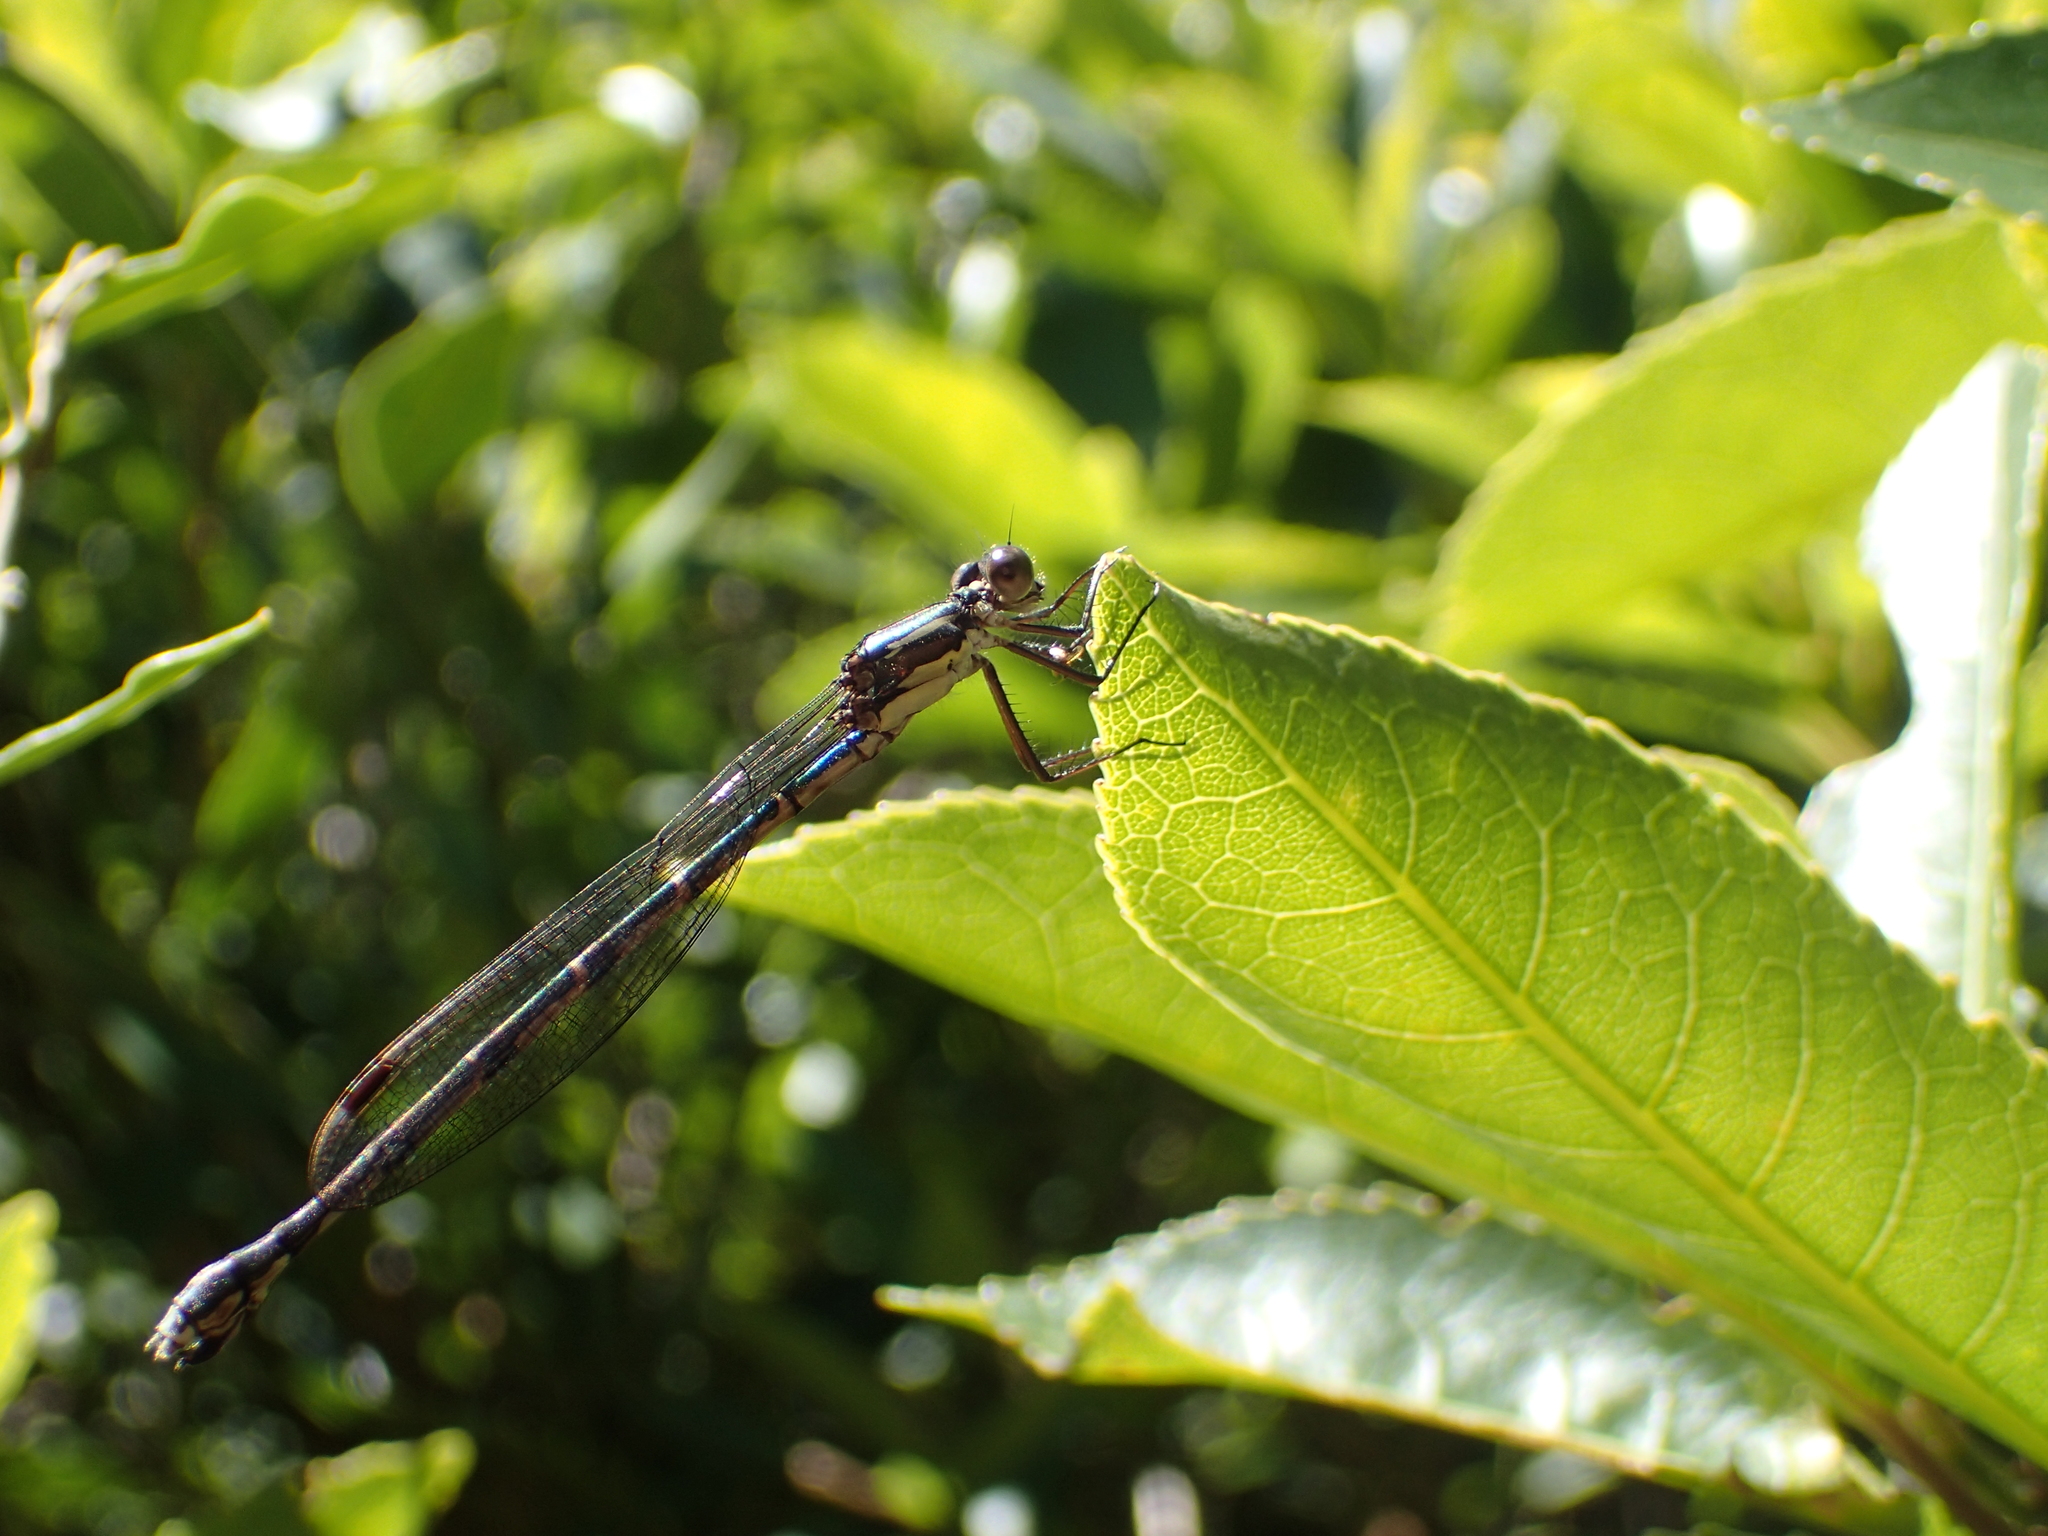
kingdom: Animalia
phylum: Arthropoda
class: Insecta
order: Odonata
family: Lestidae
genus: Austrolestes
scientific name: Austrolestes colensonis
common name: Blue damselfly
